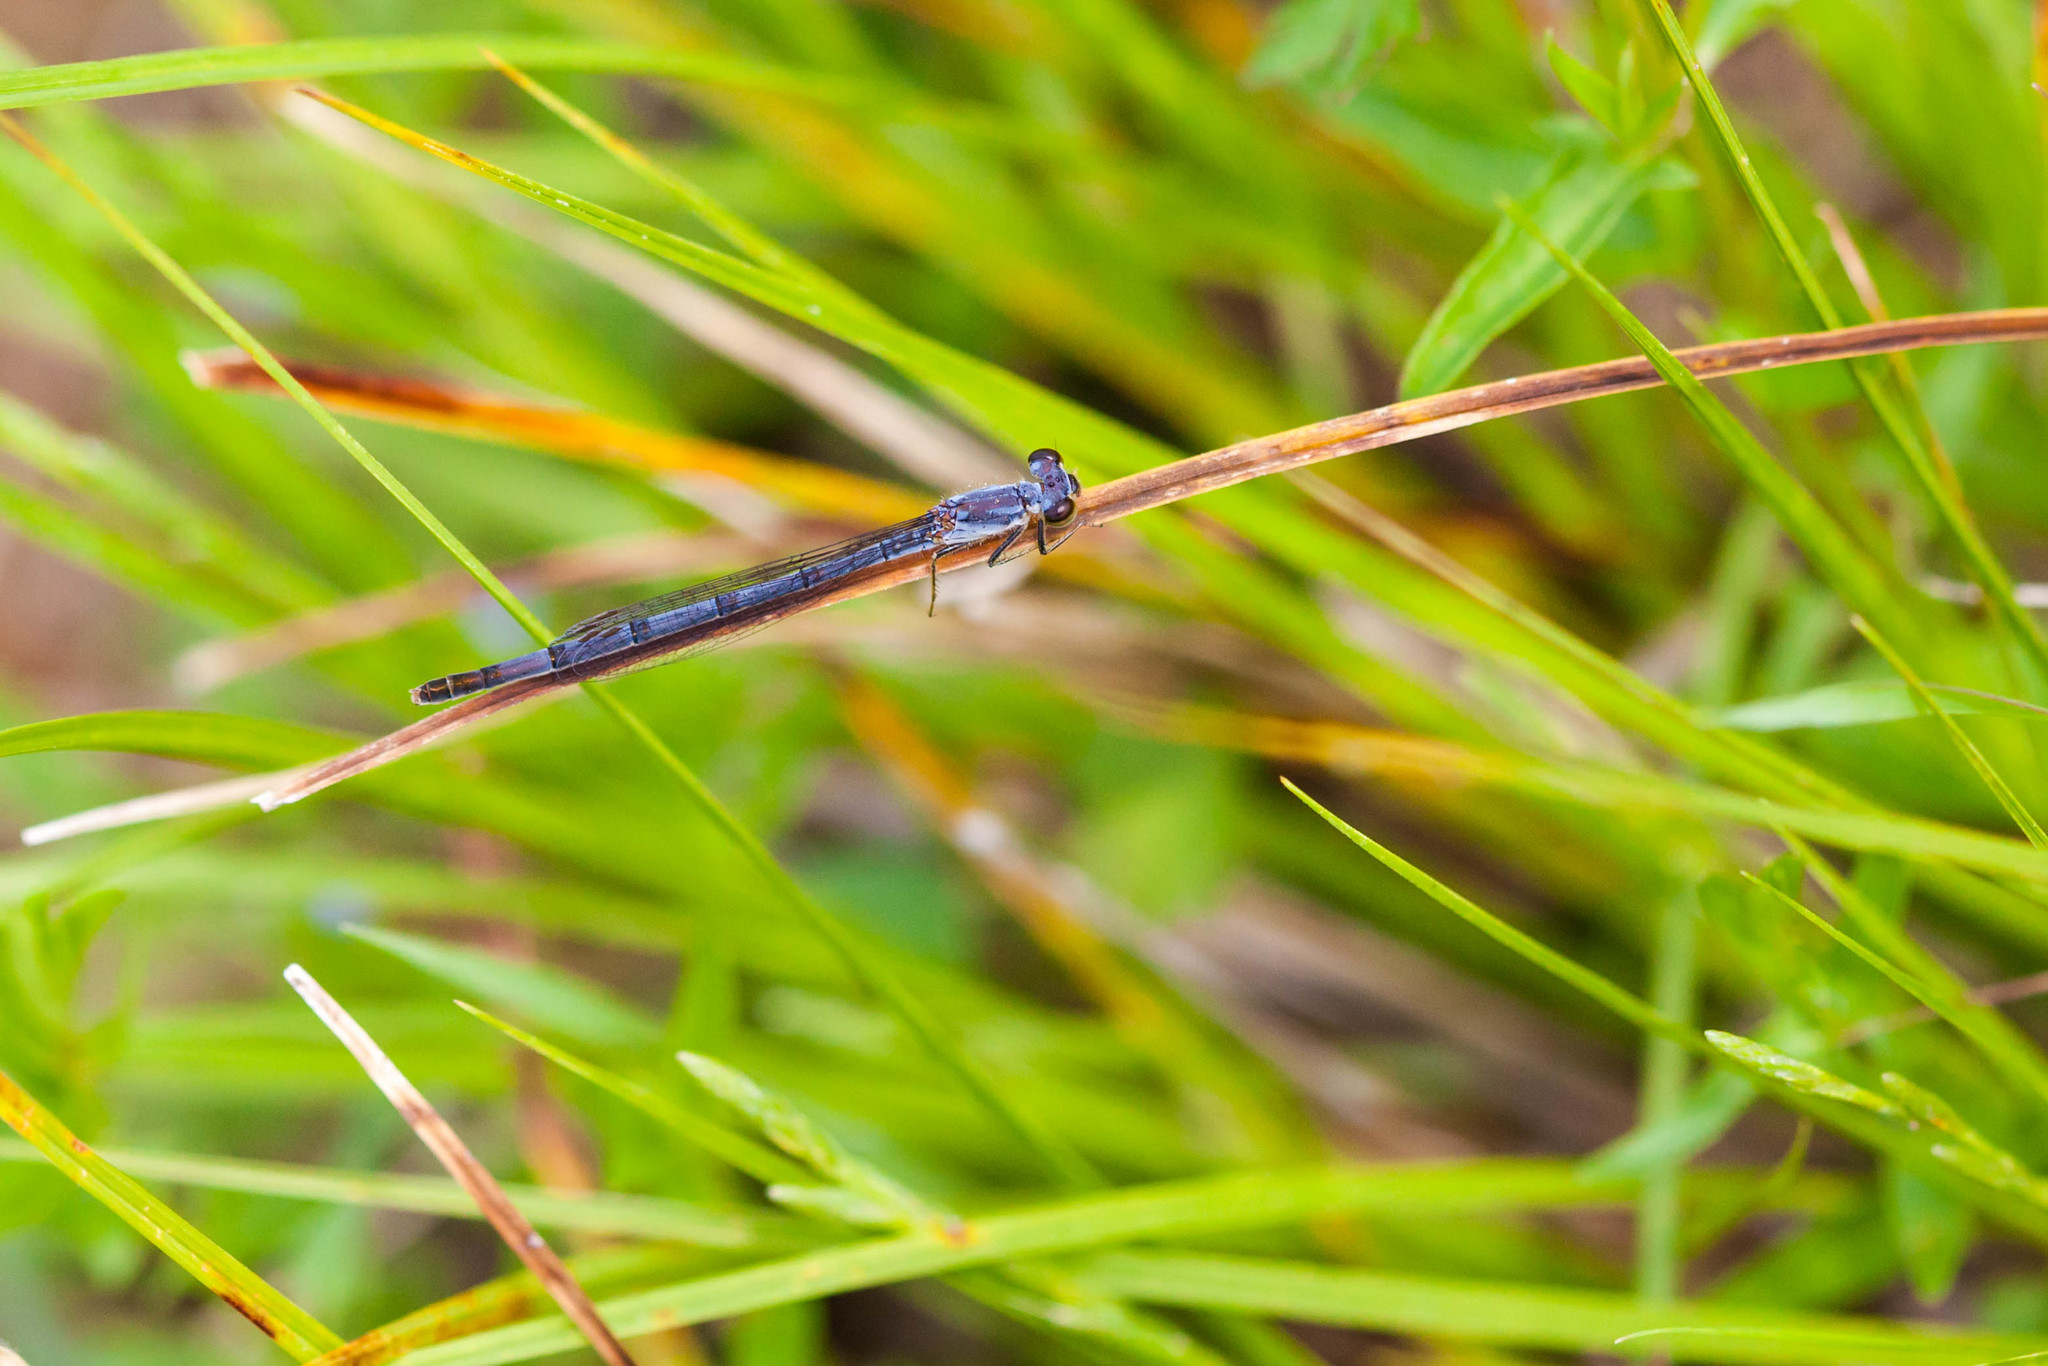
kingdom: Animalia
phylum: Arthropoda
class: Insecta
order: Odonata
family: Coenagrionidae
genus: Ischnura
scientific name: Ischnura posita
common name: Fragile forktail
